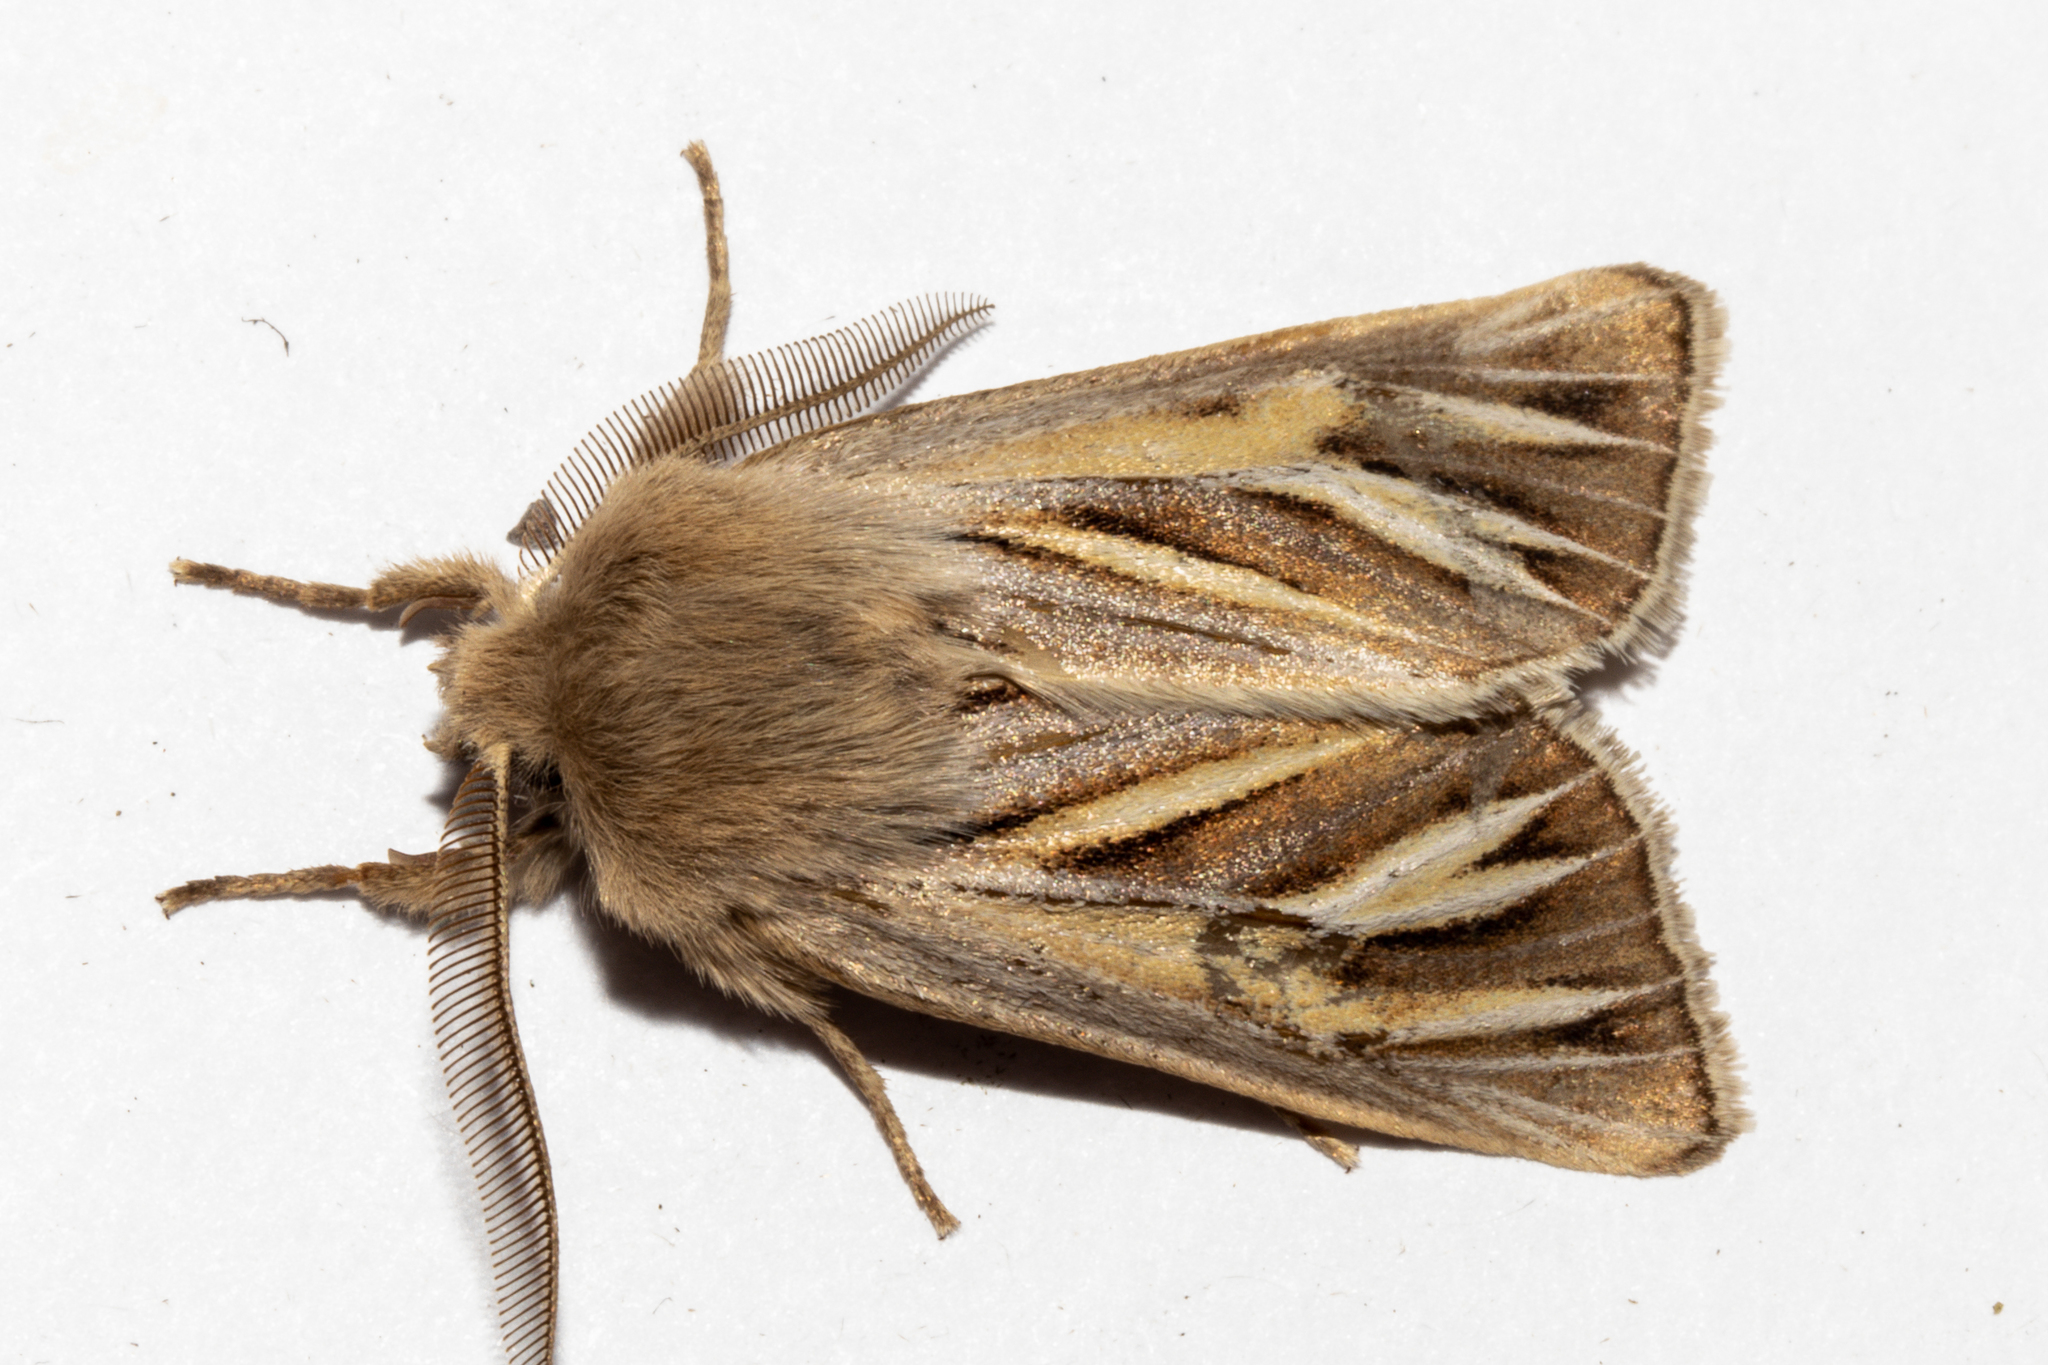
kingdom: Animalia
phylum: Arthropoda
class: Insecta
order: Lepidoptera
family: Noctuidae
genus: Ichneutica
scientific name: Ichneutica caraunias
